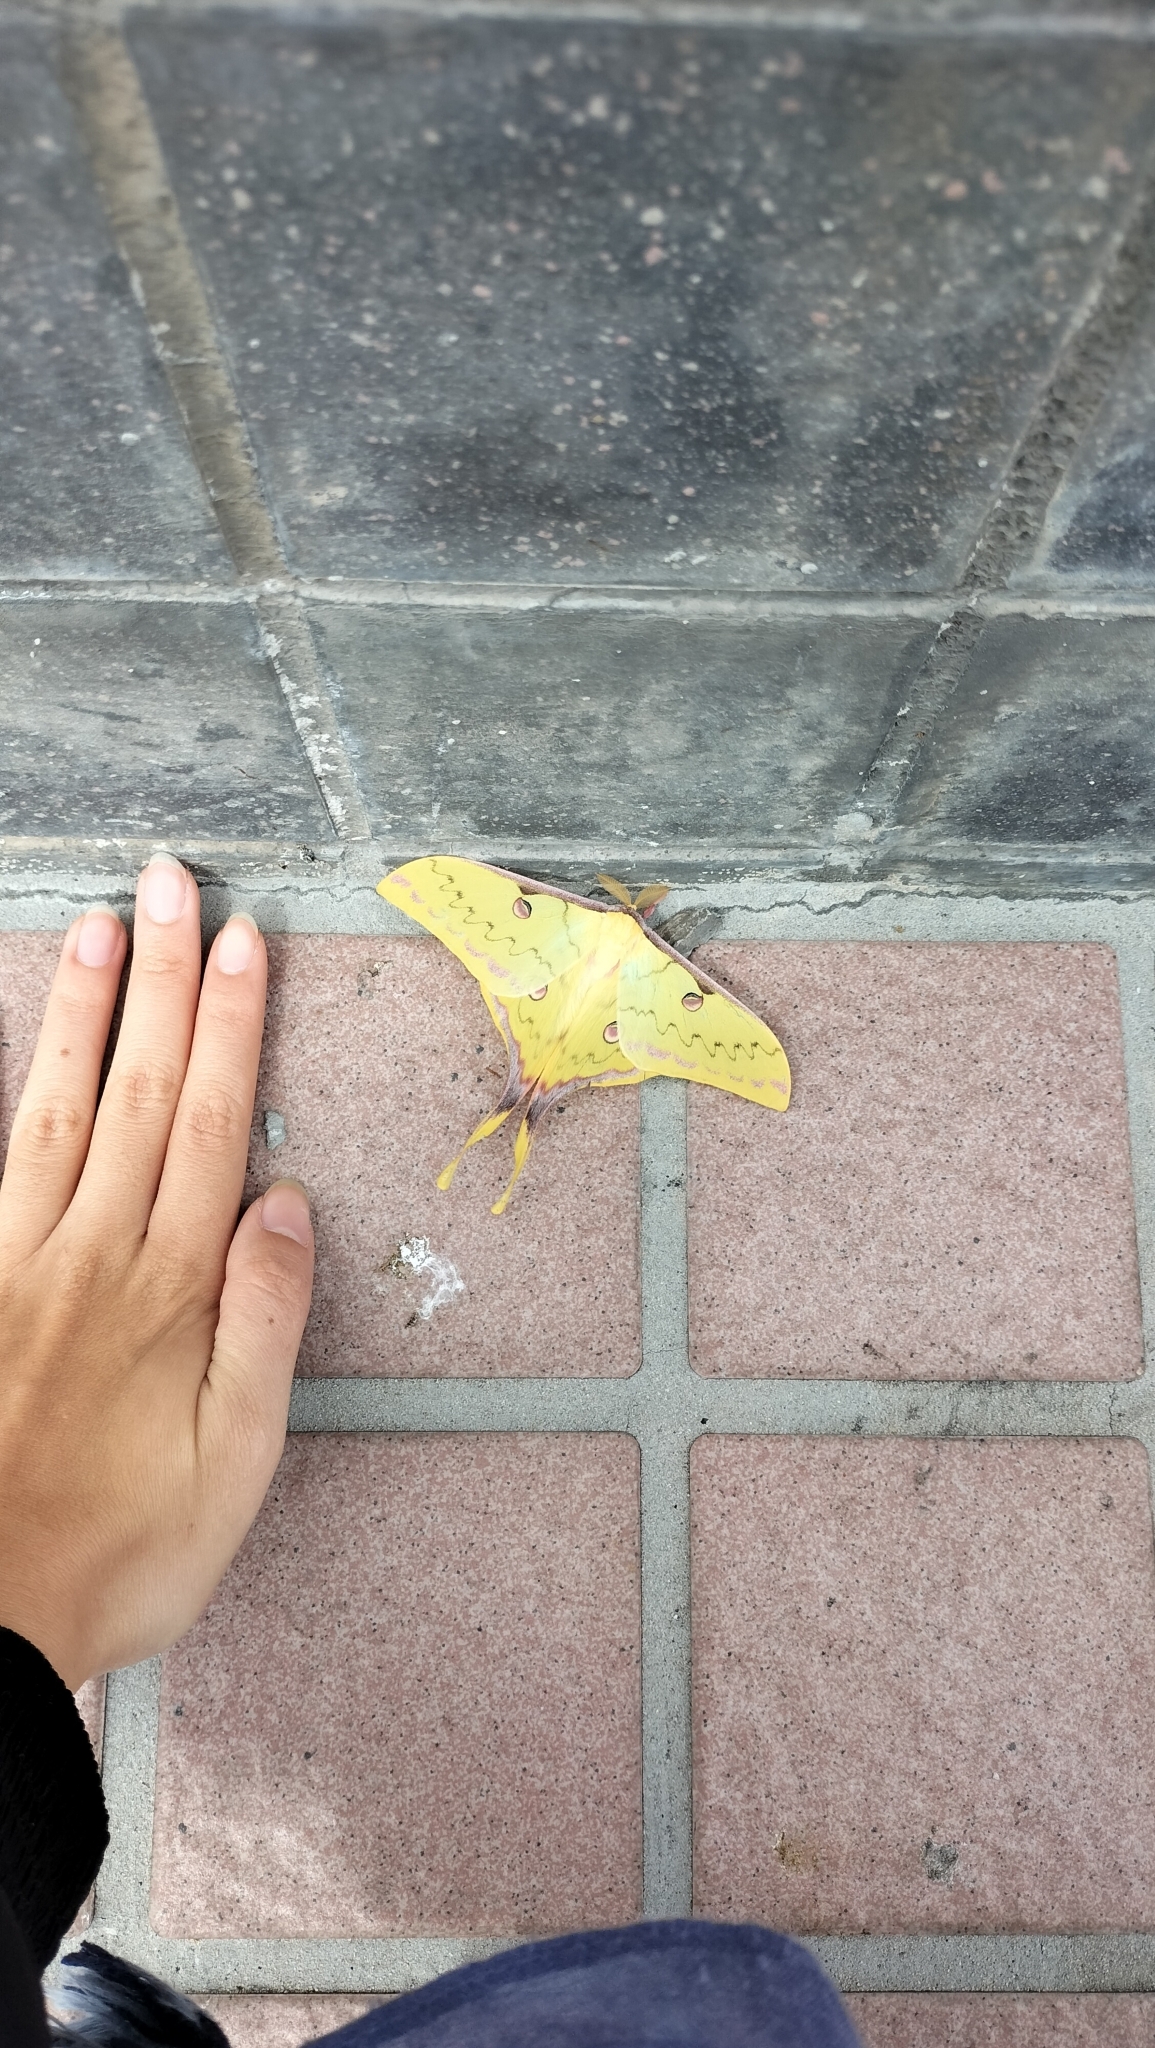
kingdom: Animalia
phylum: Arthropoda
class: Insecta
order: Lepidoptera
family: Saturniidae
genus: Actias
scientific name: Actias sinensis
